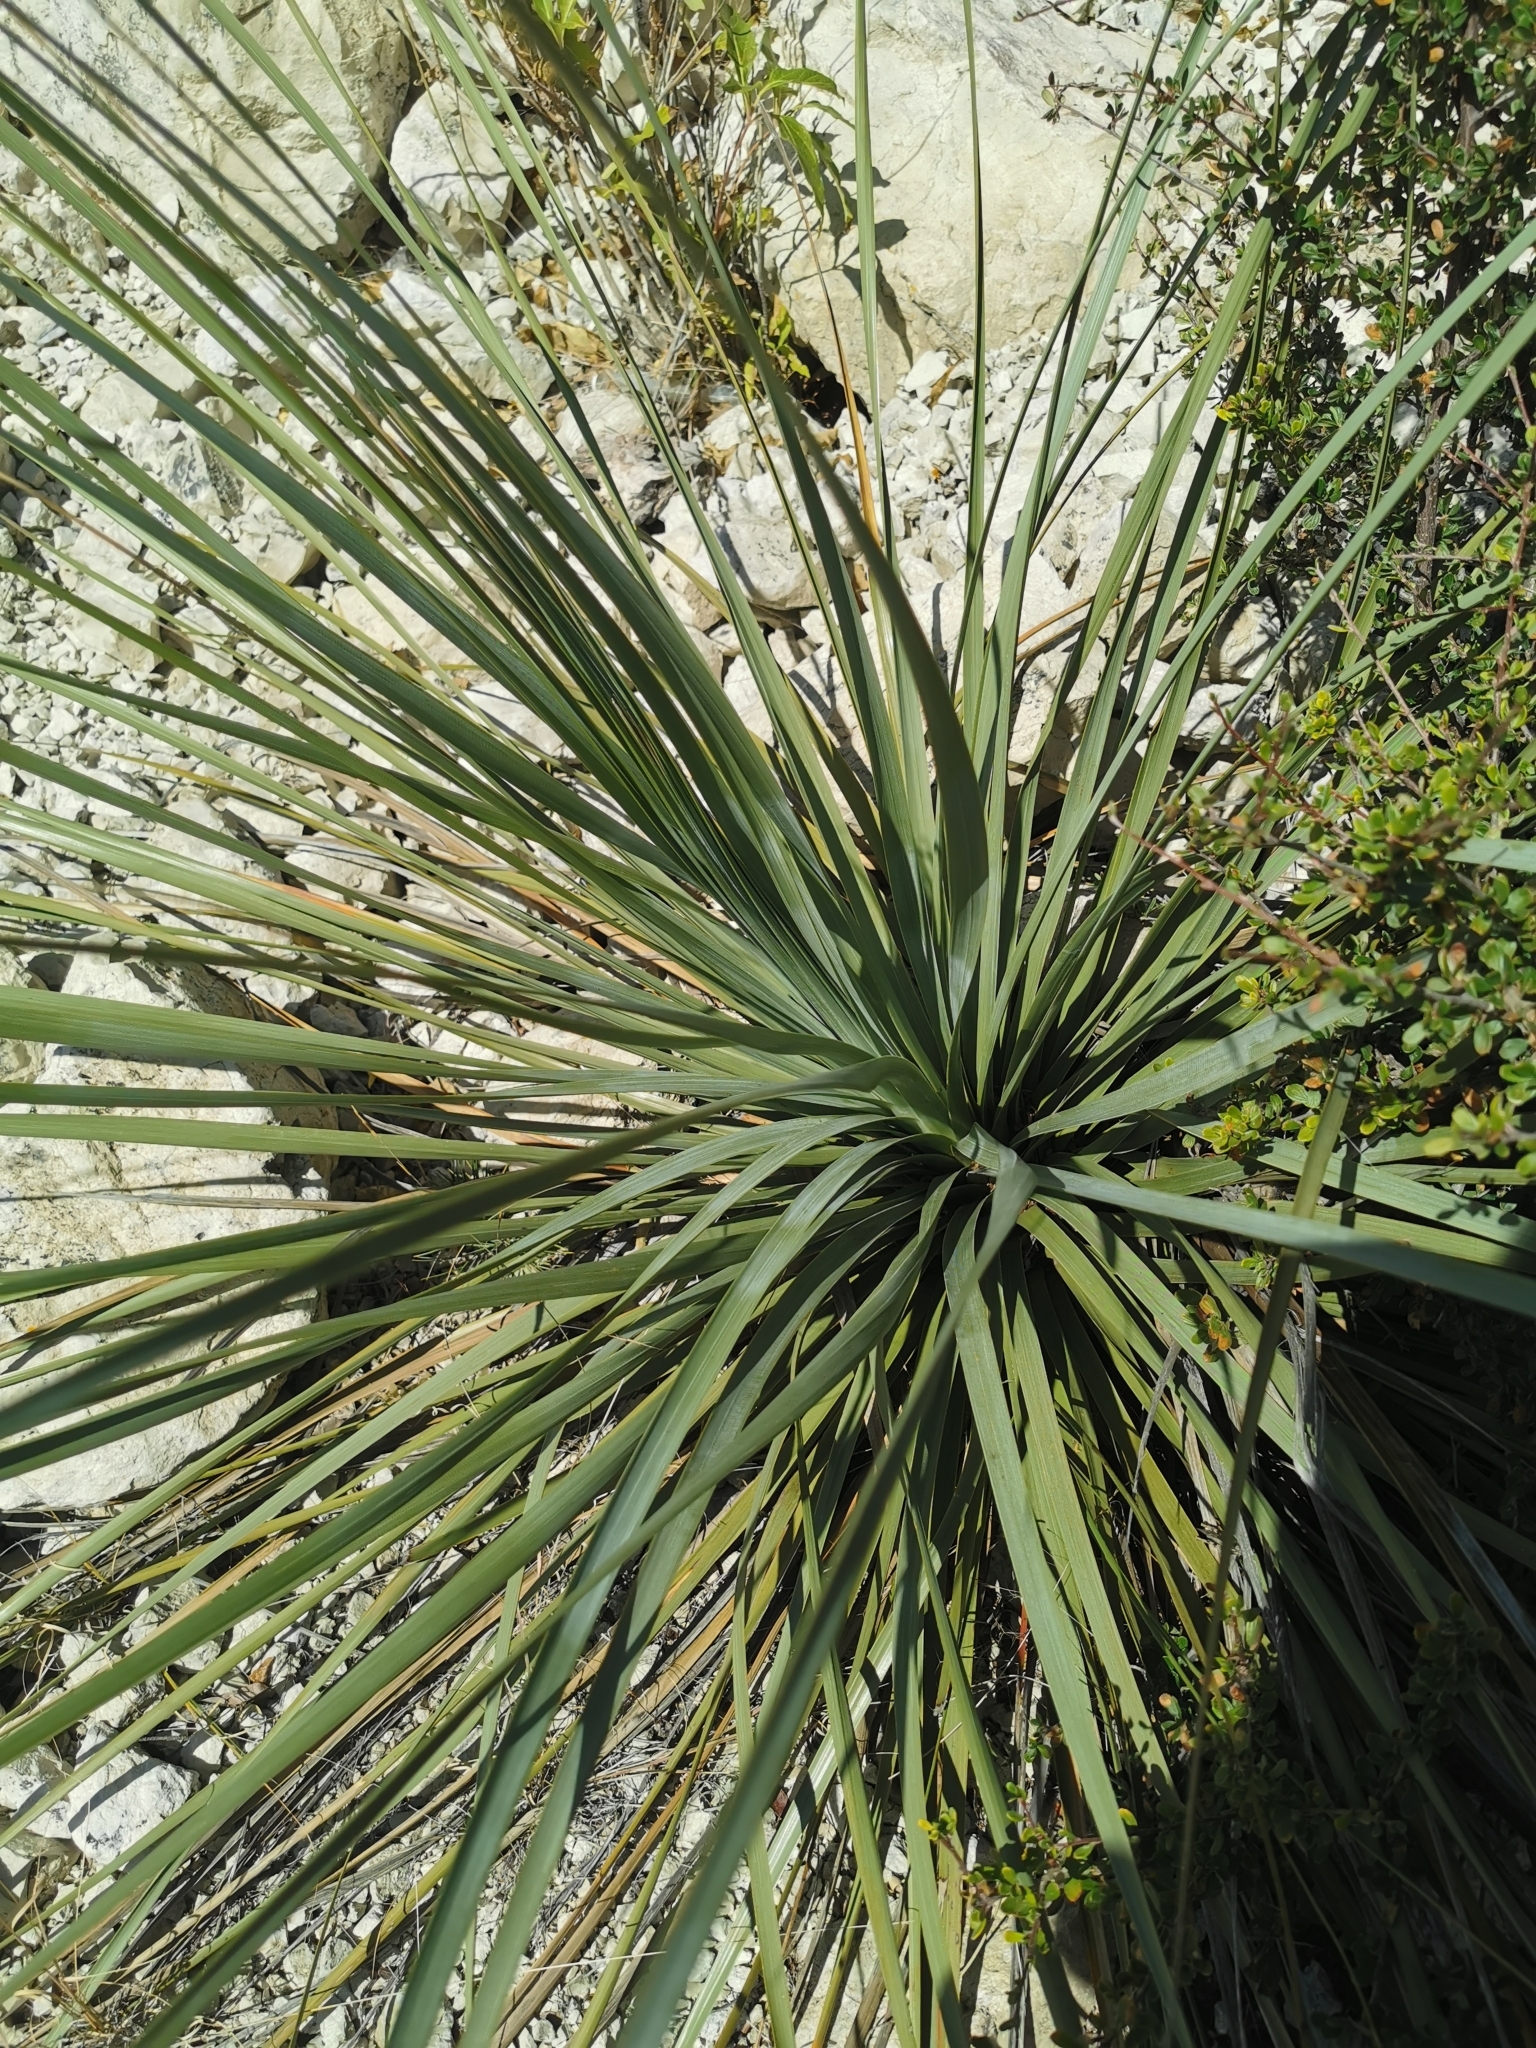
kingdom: Plantae
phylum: Tracheophyta
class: Liliopsida
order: Asparagales
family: Asparagaceae
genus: Nolina
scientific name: Nolina durangensis
